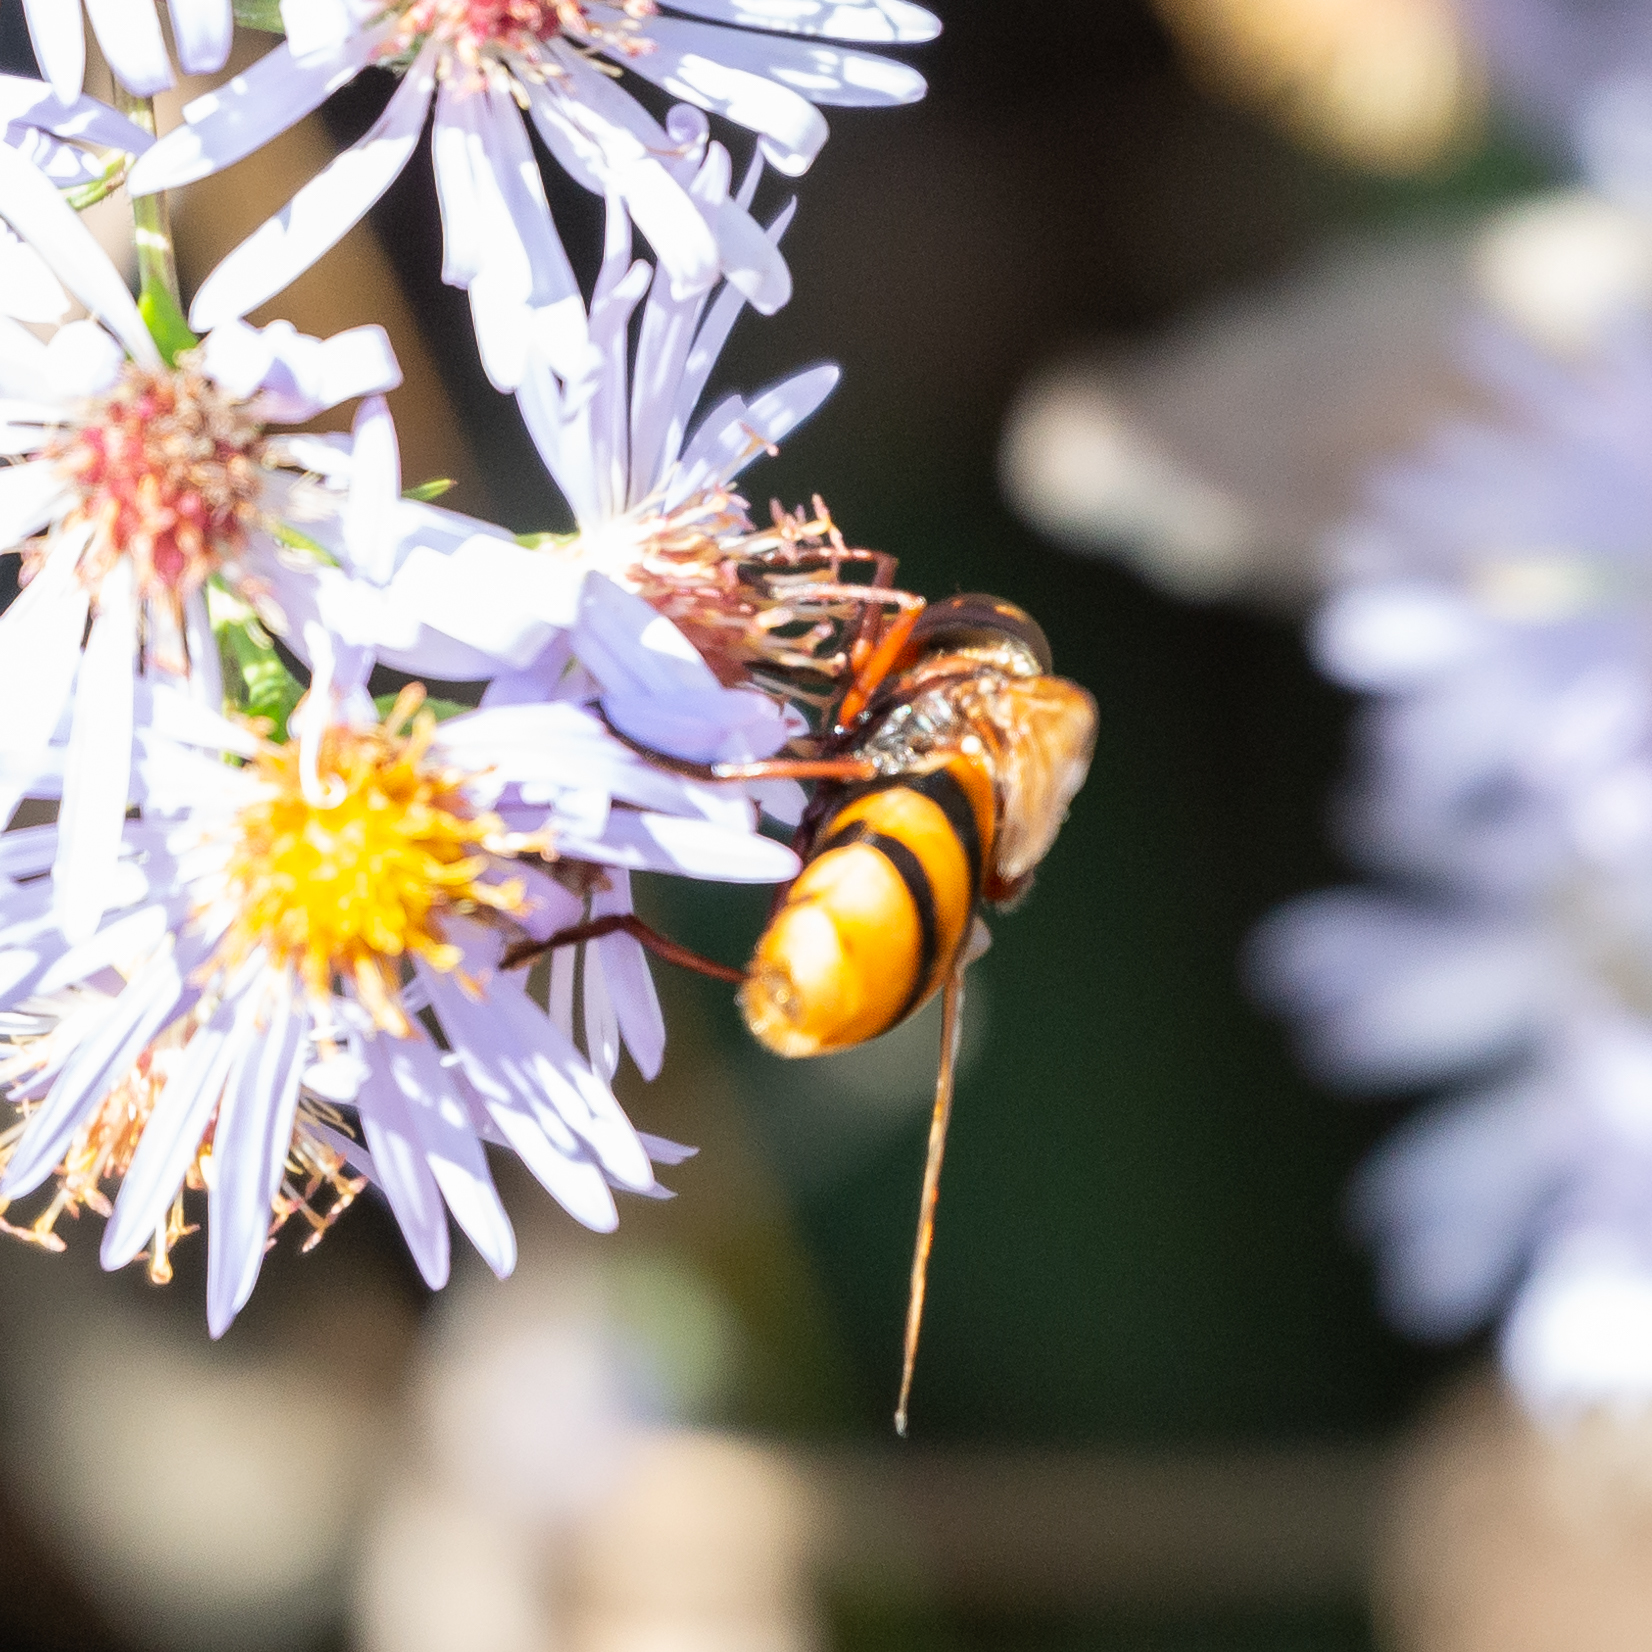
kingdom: Animalia
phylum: Arthropoda
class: Insecta
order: Diptera
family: Syrphidae
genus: Volucella
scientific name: Volucella zonaria
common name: Hornet hoverfly
